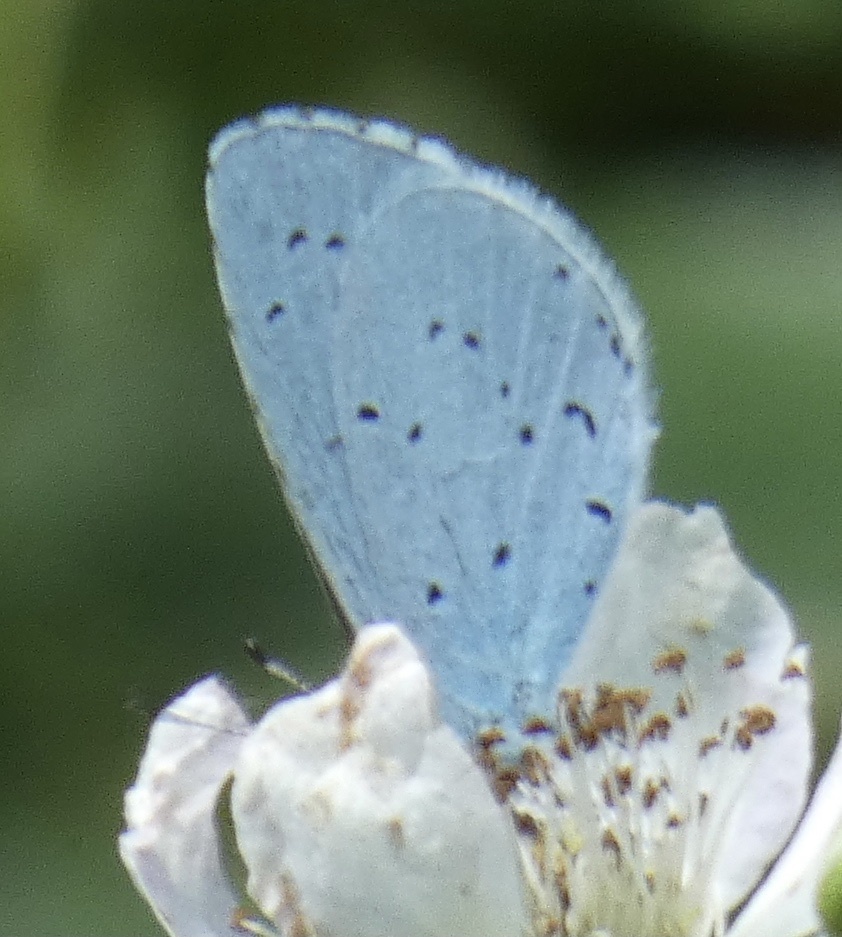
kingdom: Animalia
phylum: Arthropoda
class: Insecta
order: Lepidoptera
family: Lycaenidae
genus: Celastrina
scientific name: Celastrina argiolus
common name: Holly blue
